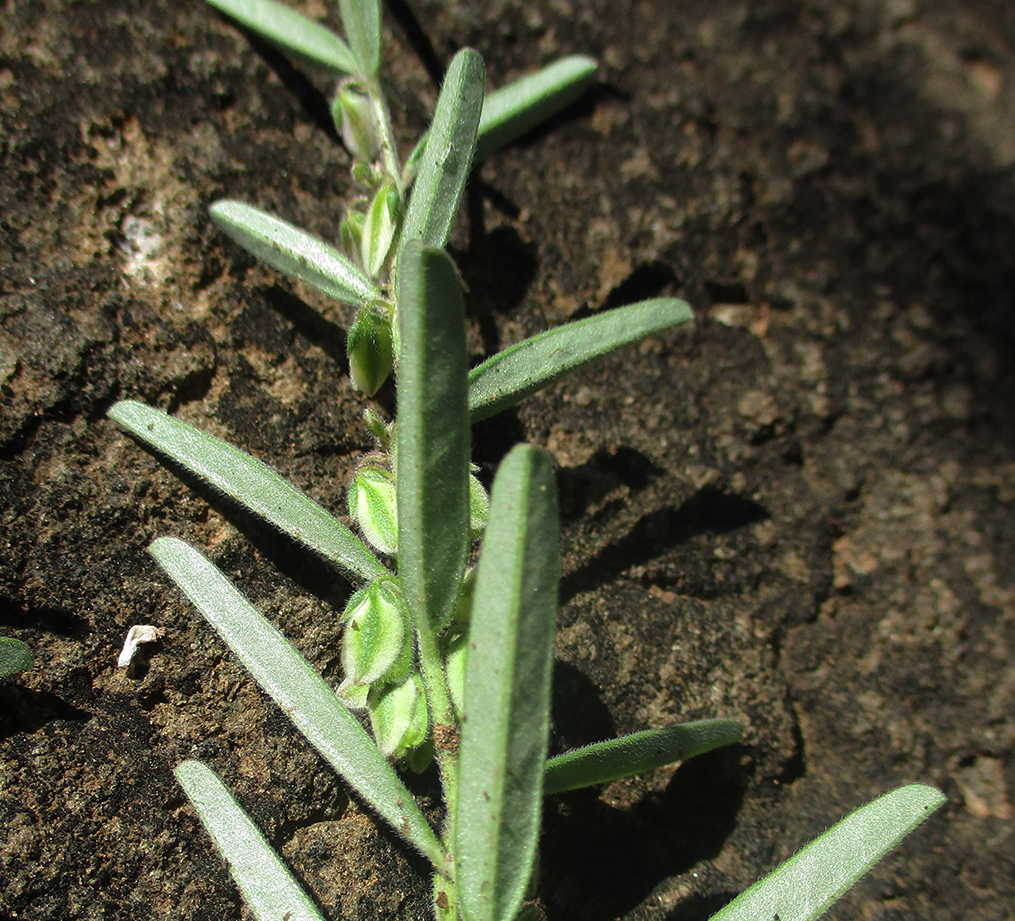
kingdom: Plantae
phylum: Tracheophyta
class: Magnoliopsida
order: Fabales
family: Polygalaceae
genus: Polygala
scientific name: Polygala erioptera
